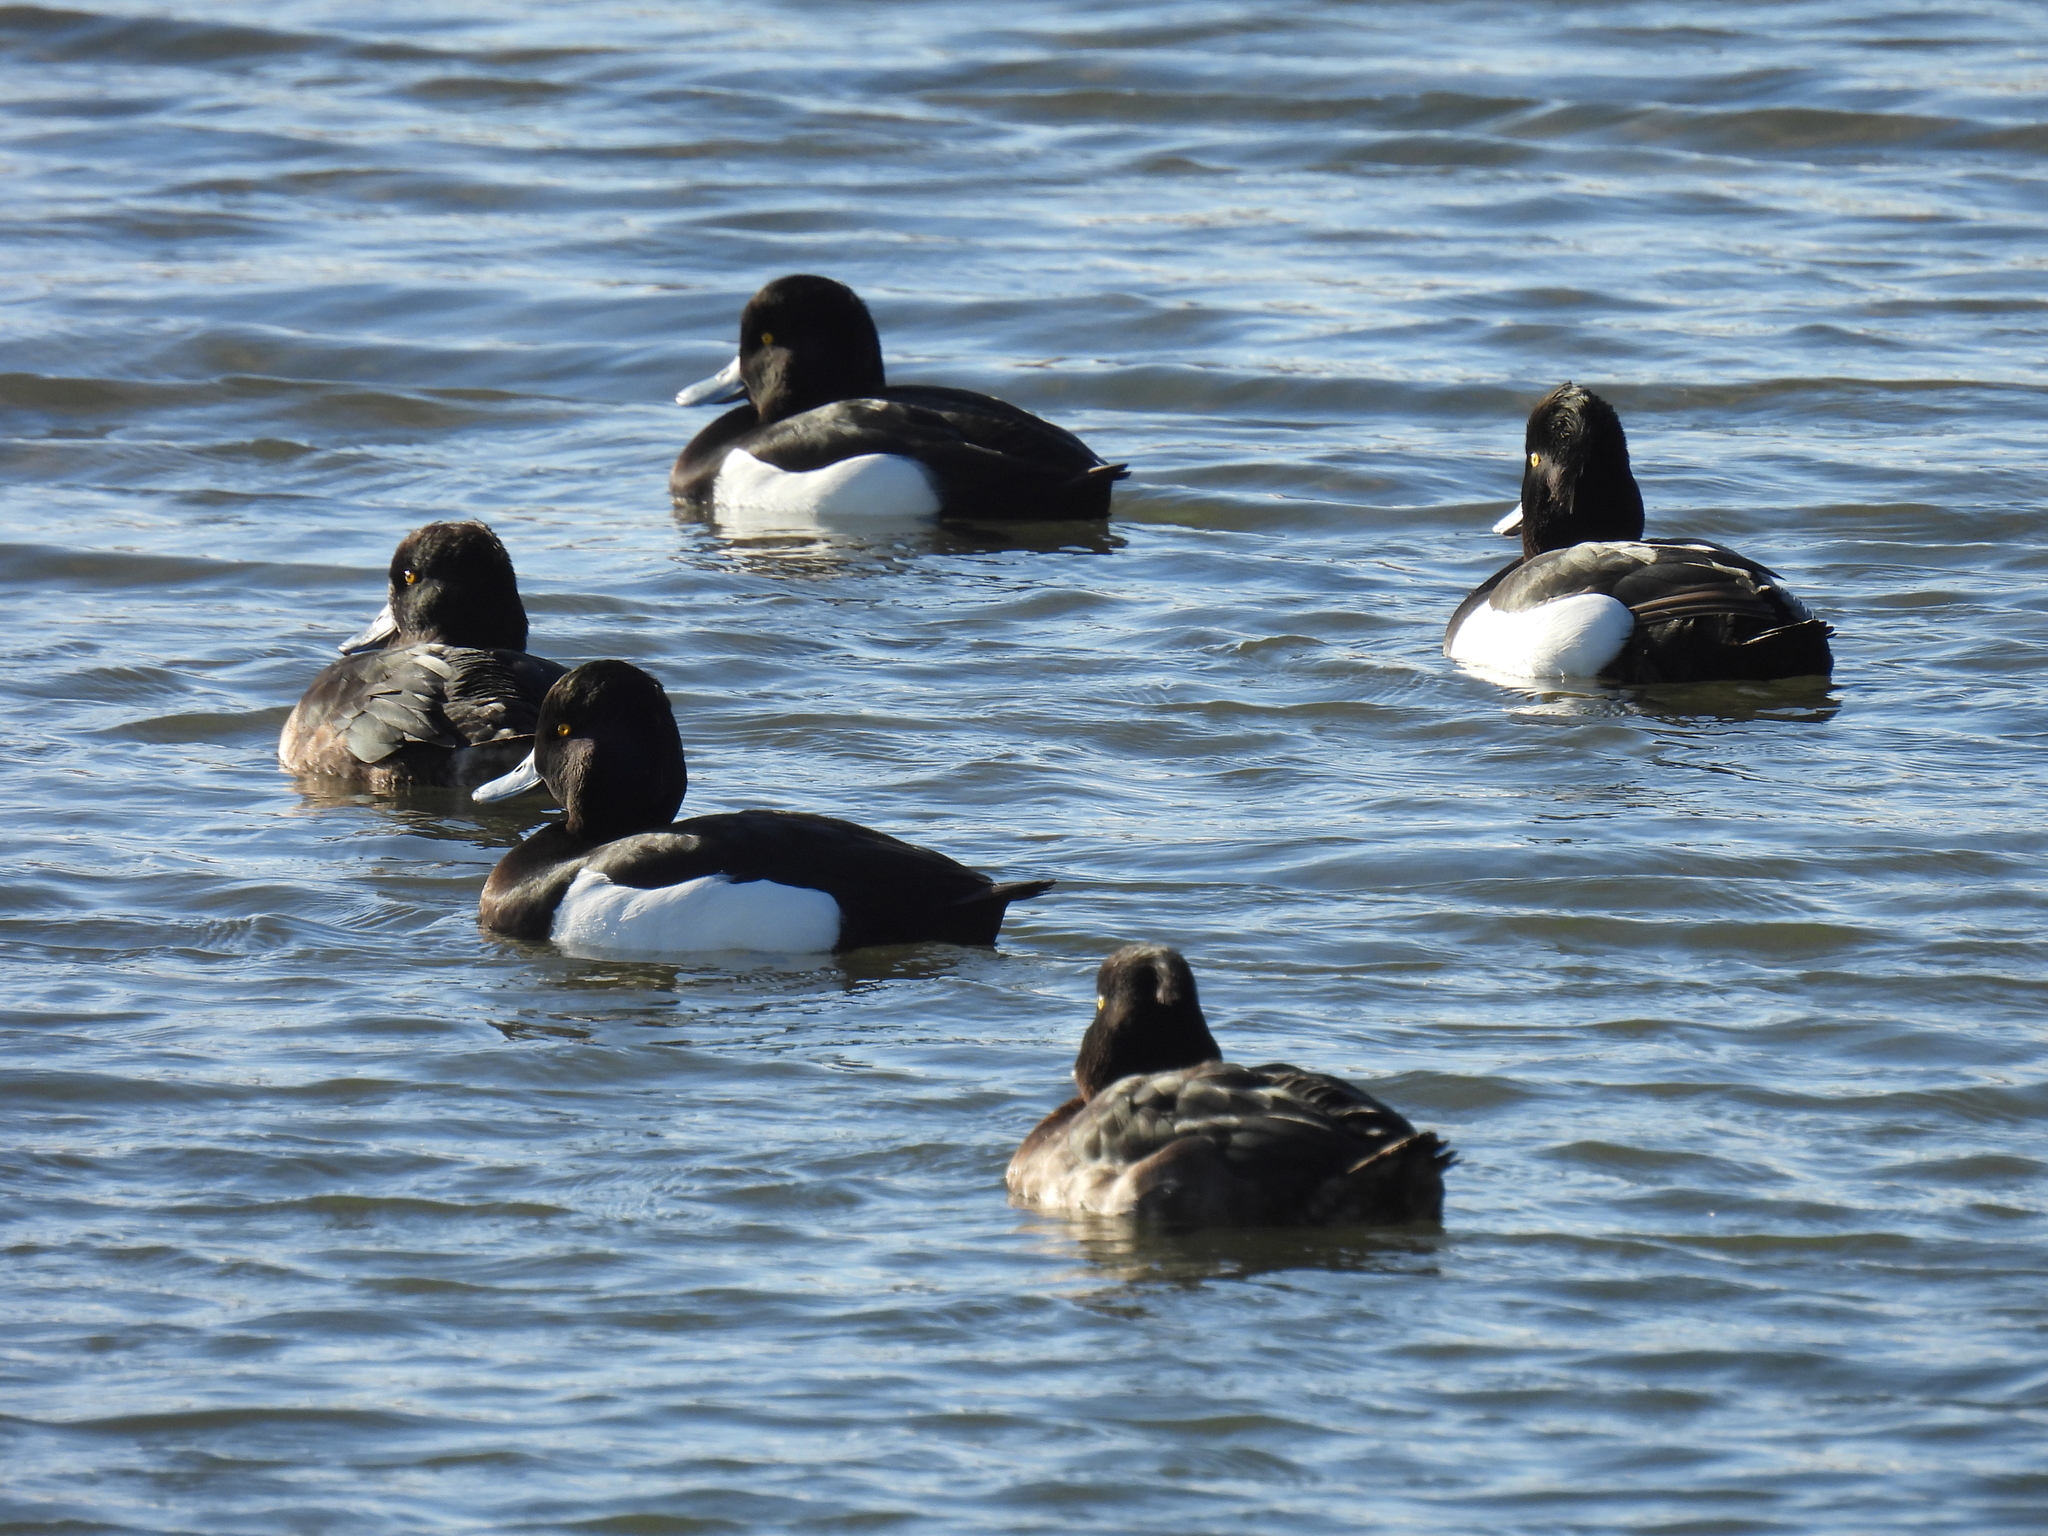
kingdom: Animalia
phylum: Chordata
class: Aves
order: Anseriformes
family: Anatidae
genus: Aythya
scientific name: Aythya fuligula
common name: Tufted duck
